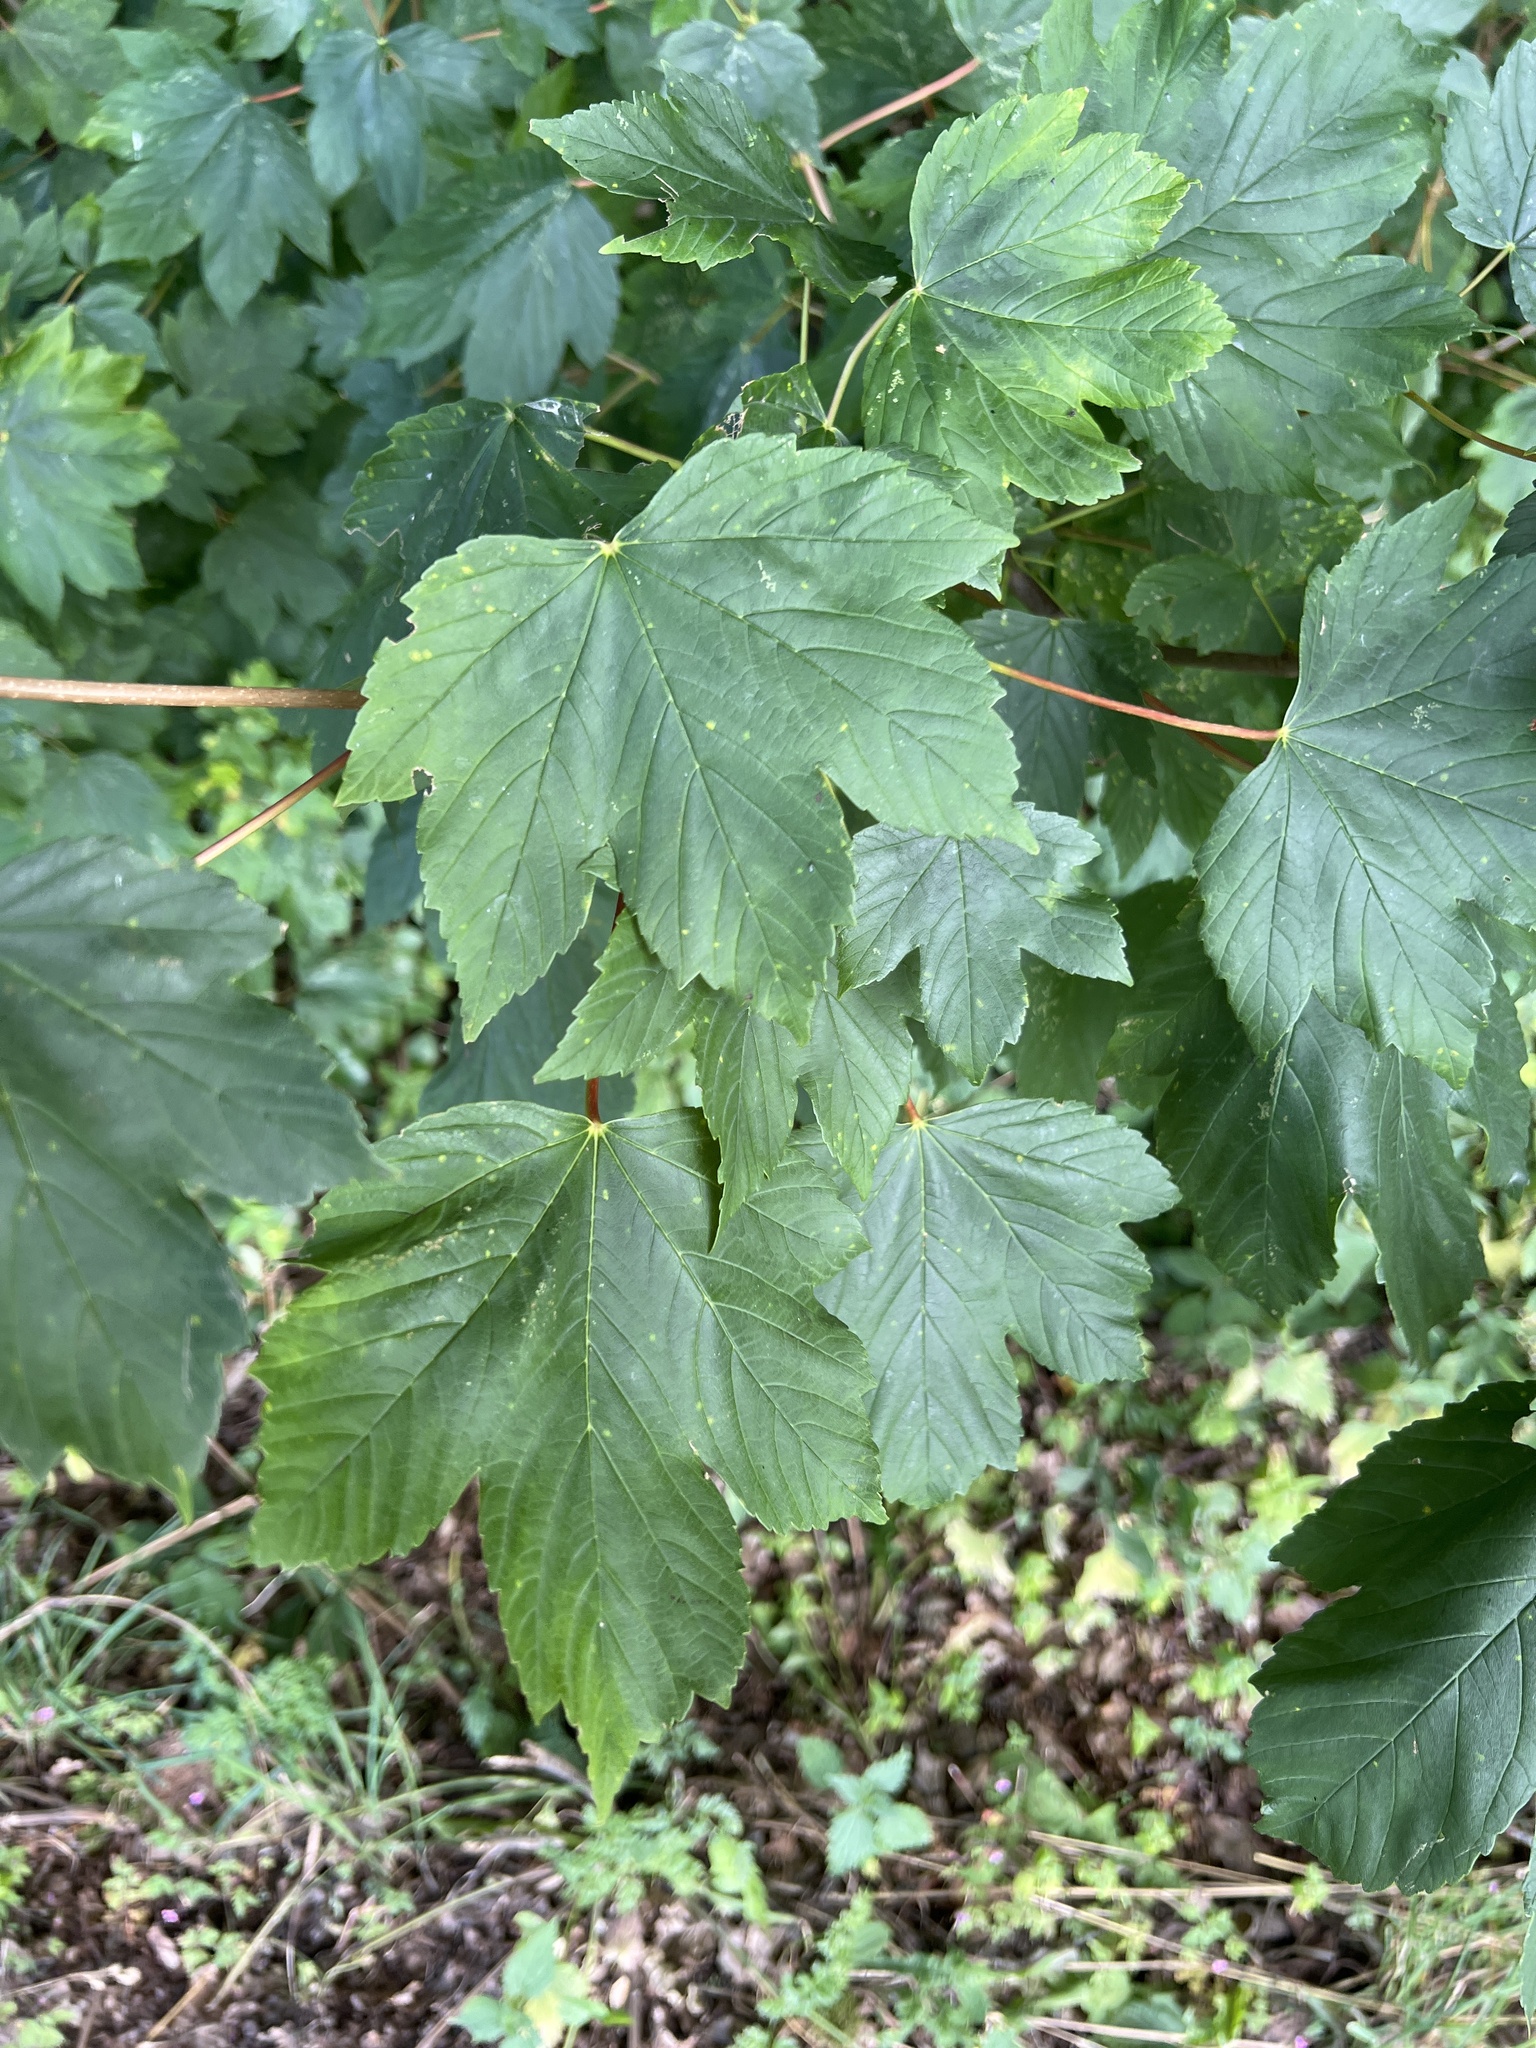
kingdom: Plantae
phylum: Tracheophyta
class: Magnoliopsida
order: Sapindales
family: Sapindaceae
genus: Acer
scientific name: Acer pseudoplatanus
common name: Sycamore
